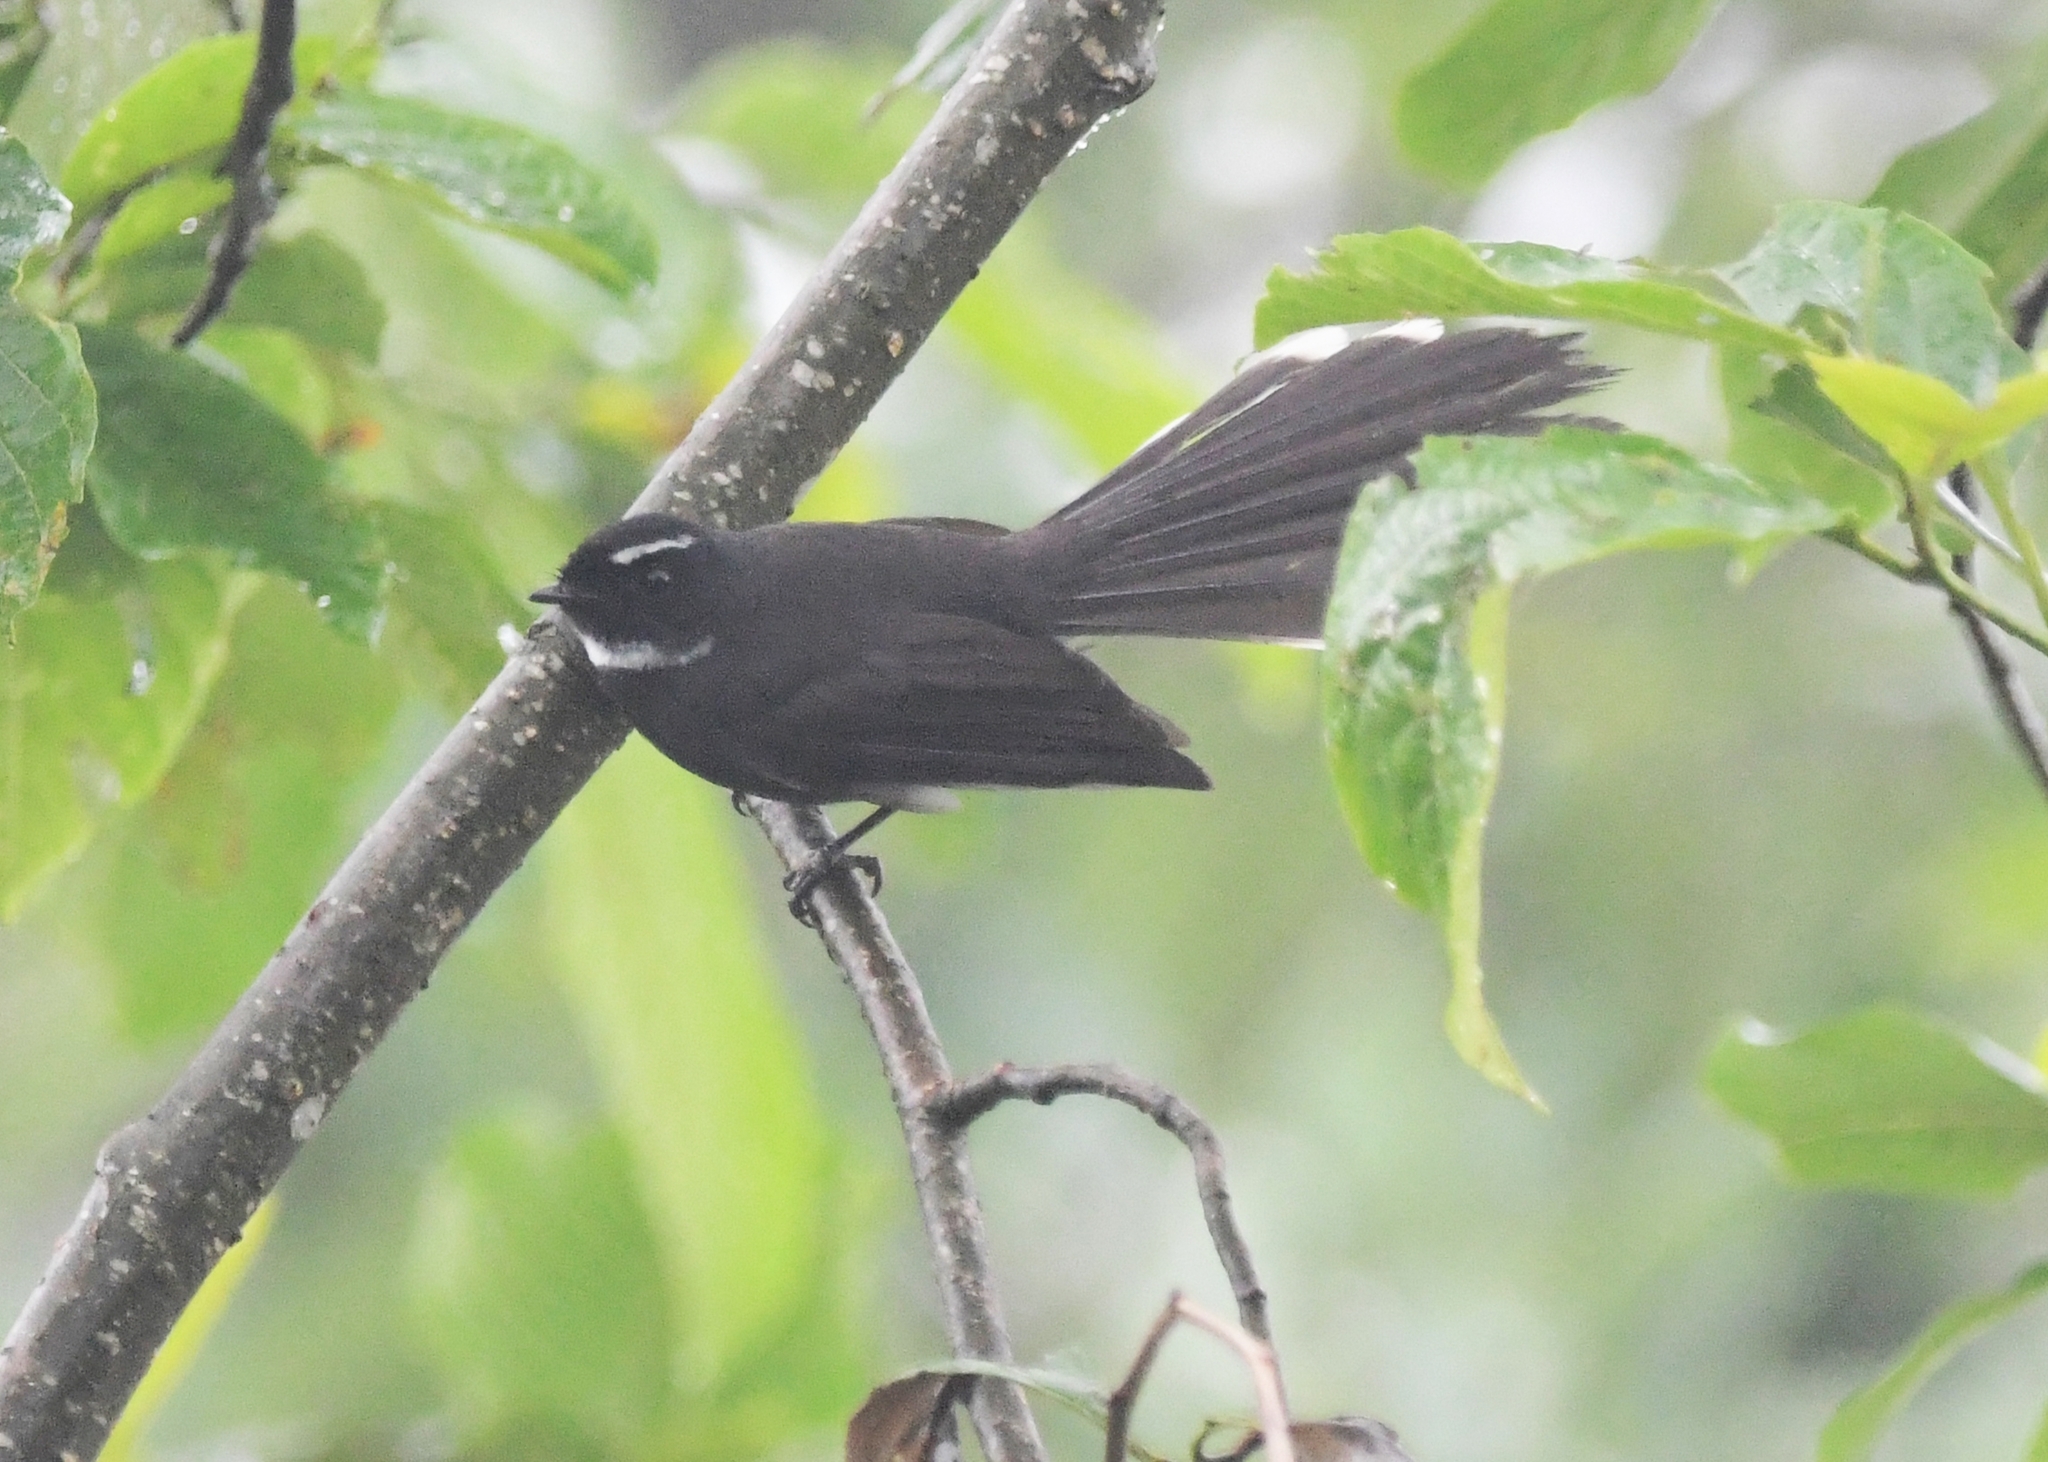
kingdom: Animalia
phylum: Chordata
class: Aves
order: Passeriformes
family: Rhipiduridae
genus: Rhipidura
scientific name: Rhipidura albicollis
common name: White-throated fantail
